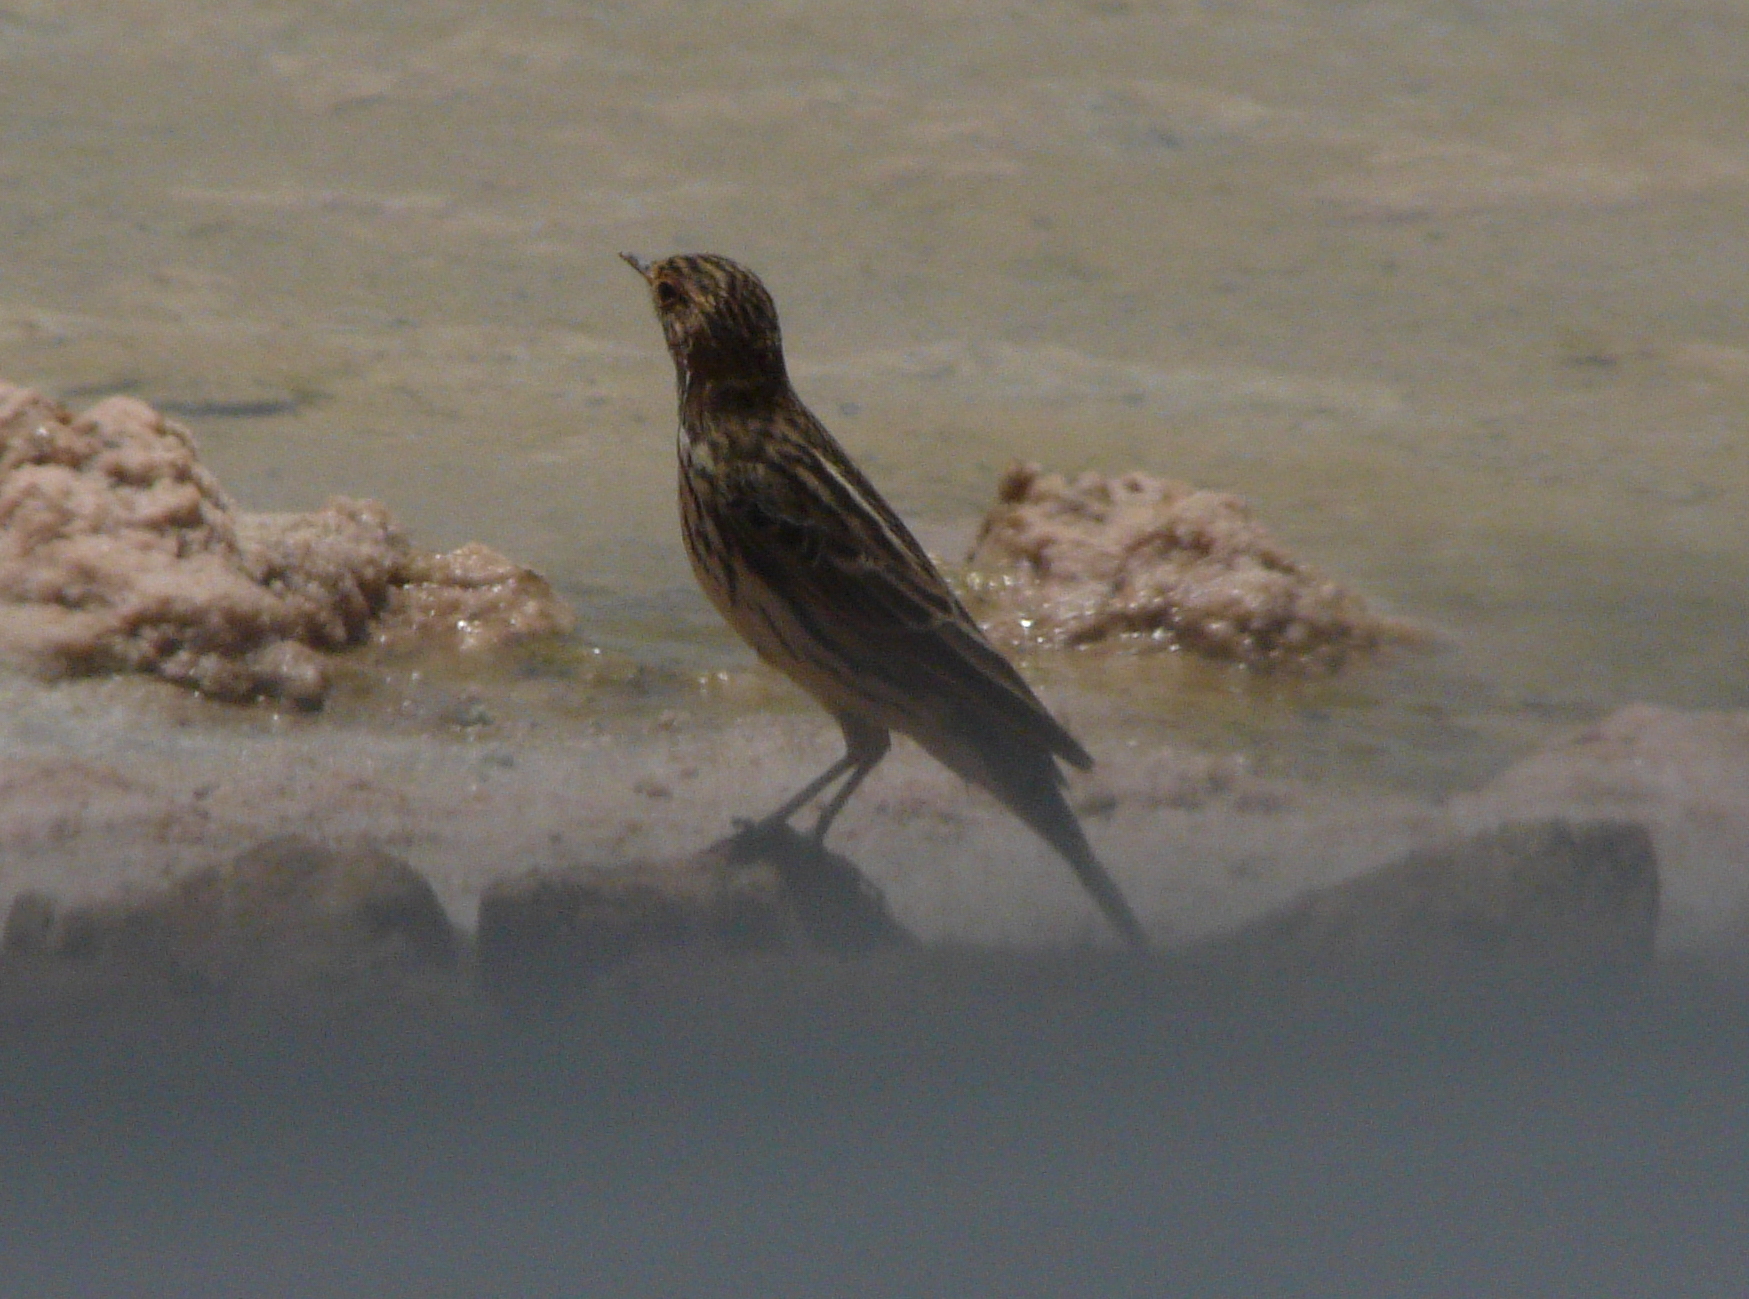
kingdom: Animalia
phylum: Chordata
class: Aves
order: Passeriformes
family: Motacillidae
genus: Anthus
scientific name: Anthus cervinus
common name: Red-throated pipit
